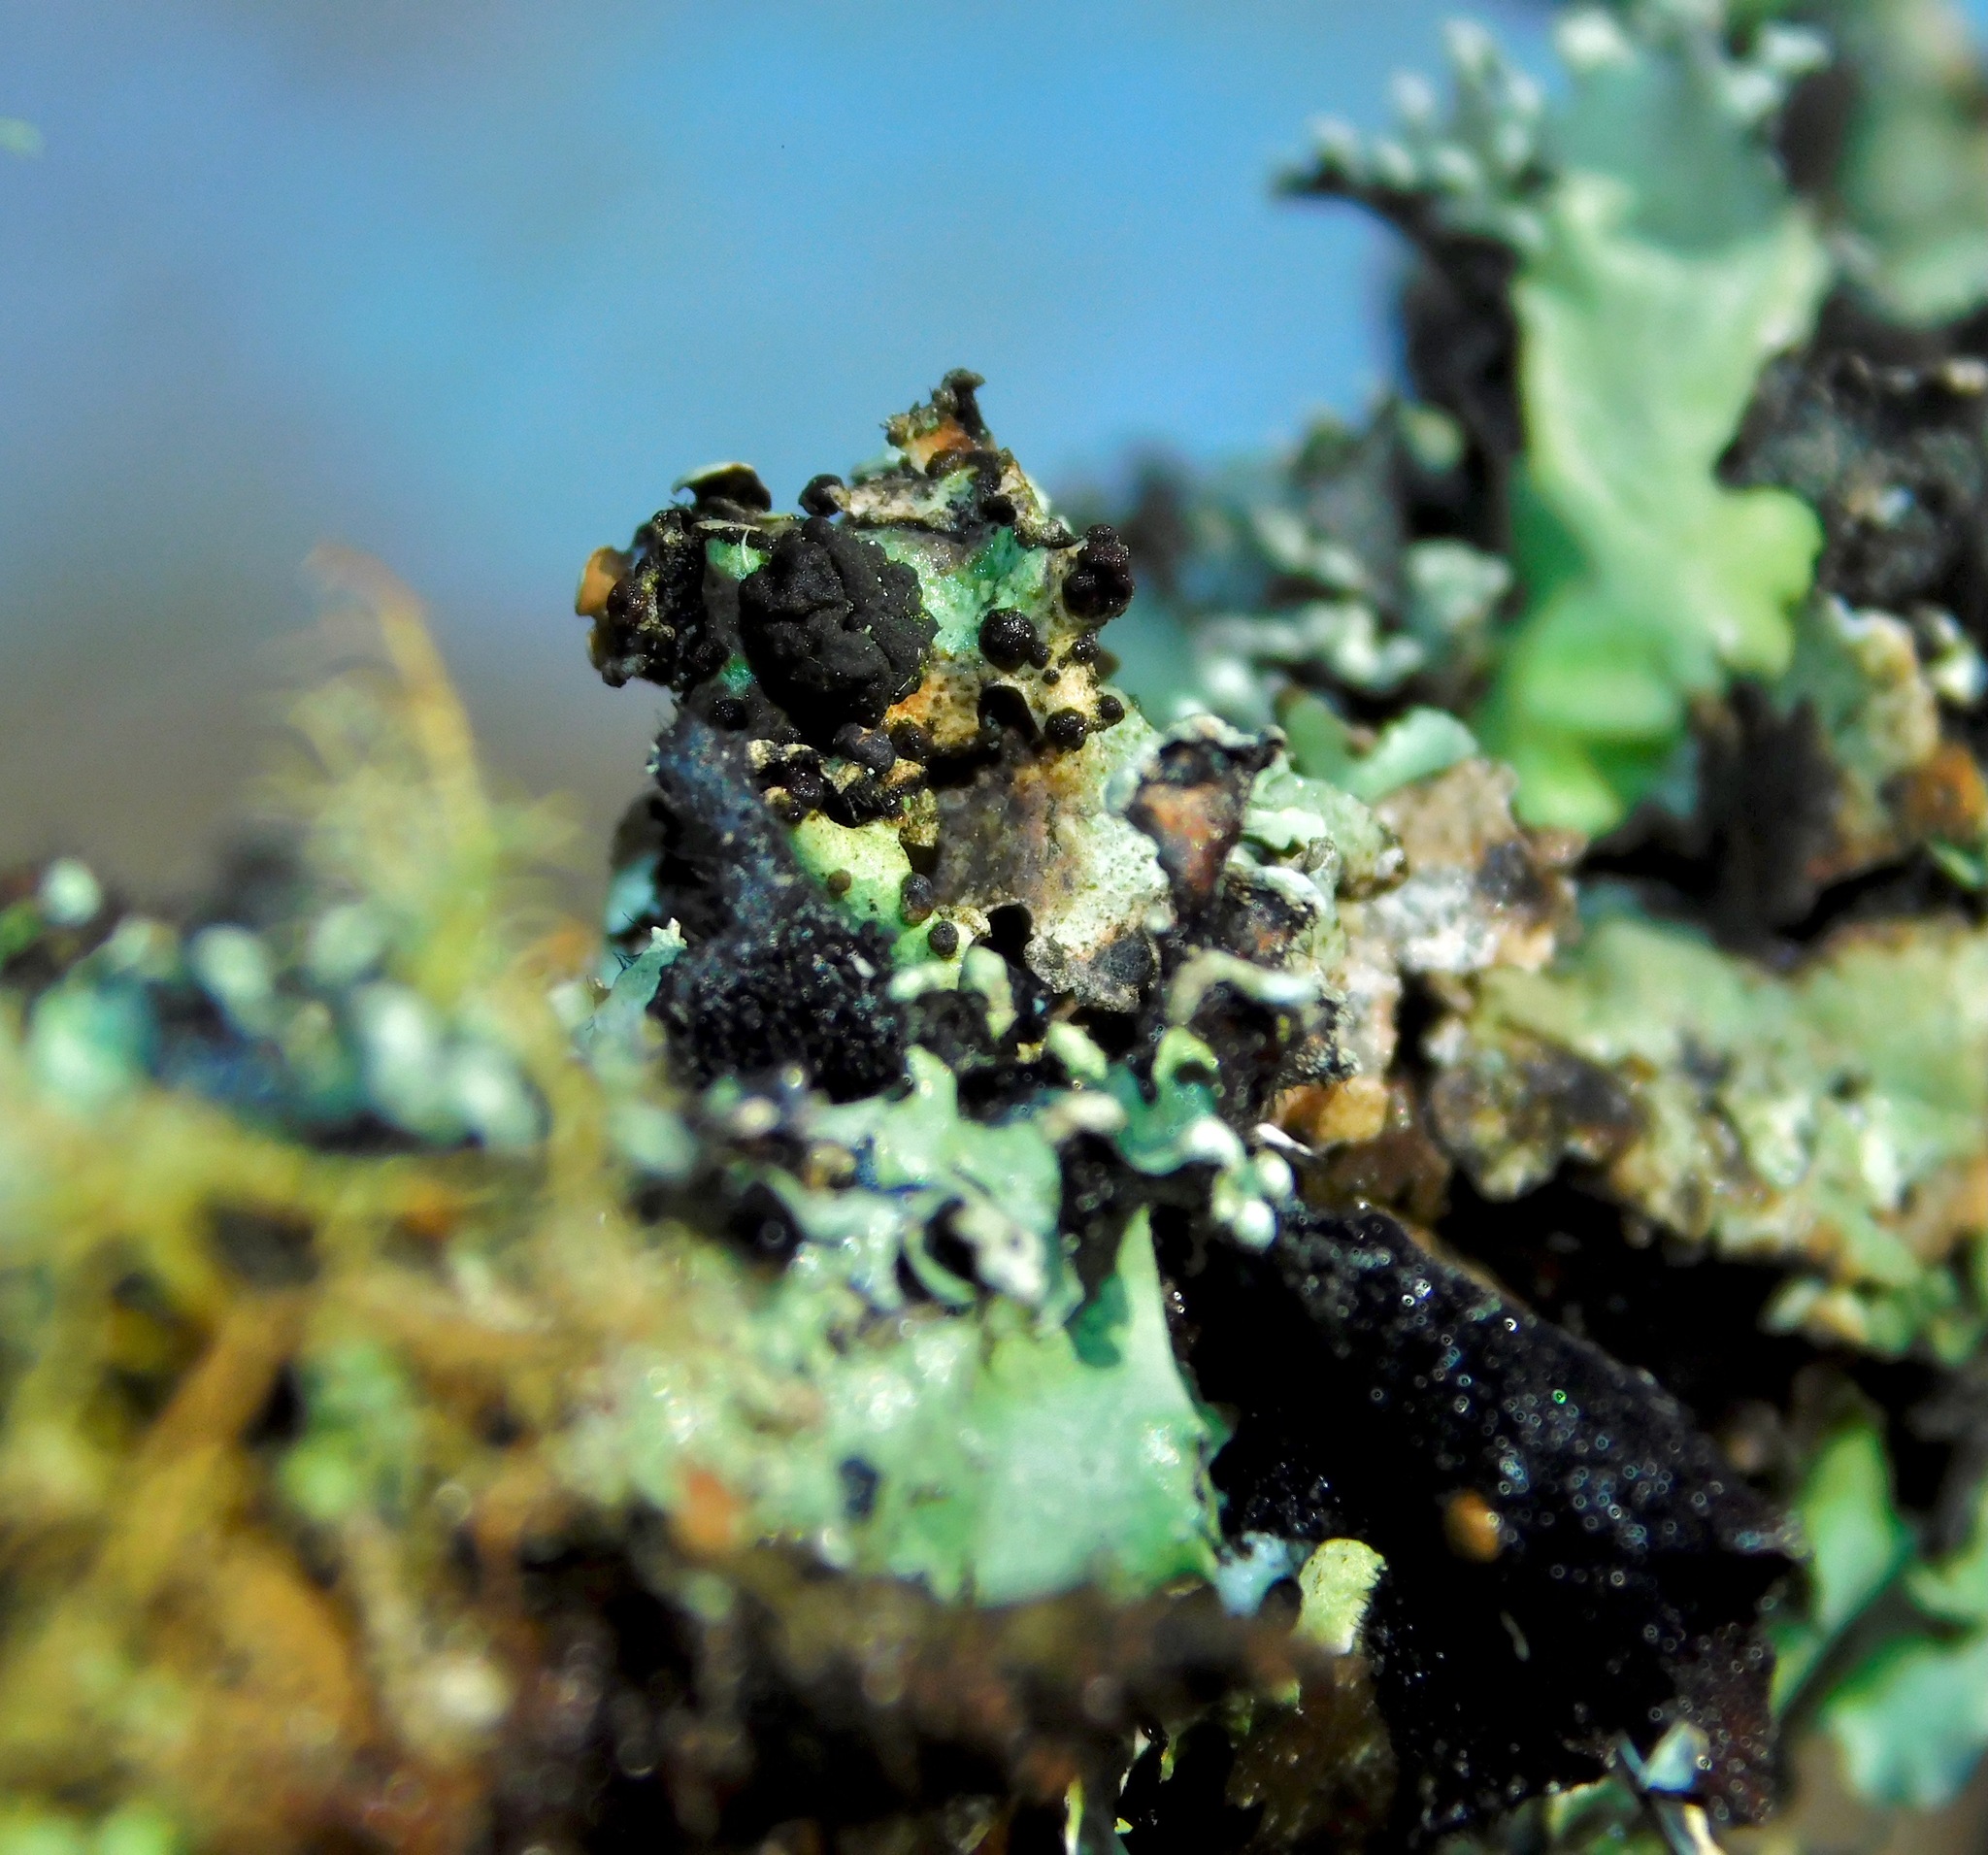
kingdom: Fungi
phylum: Basidiomycota
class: Tremellomycetes
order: Tremellales
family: Tremellaceae
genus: Tremella
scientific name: Tremella parmeliarum
